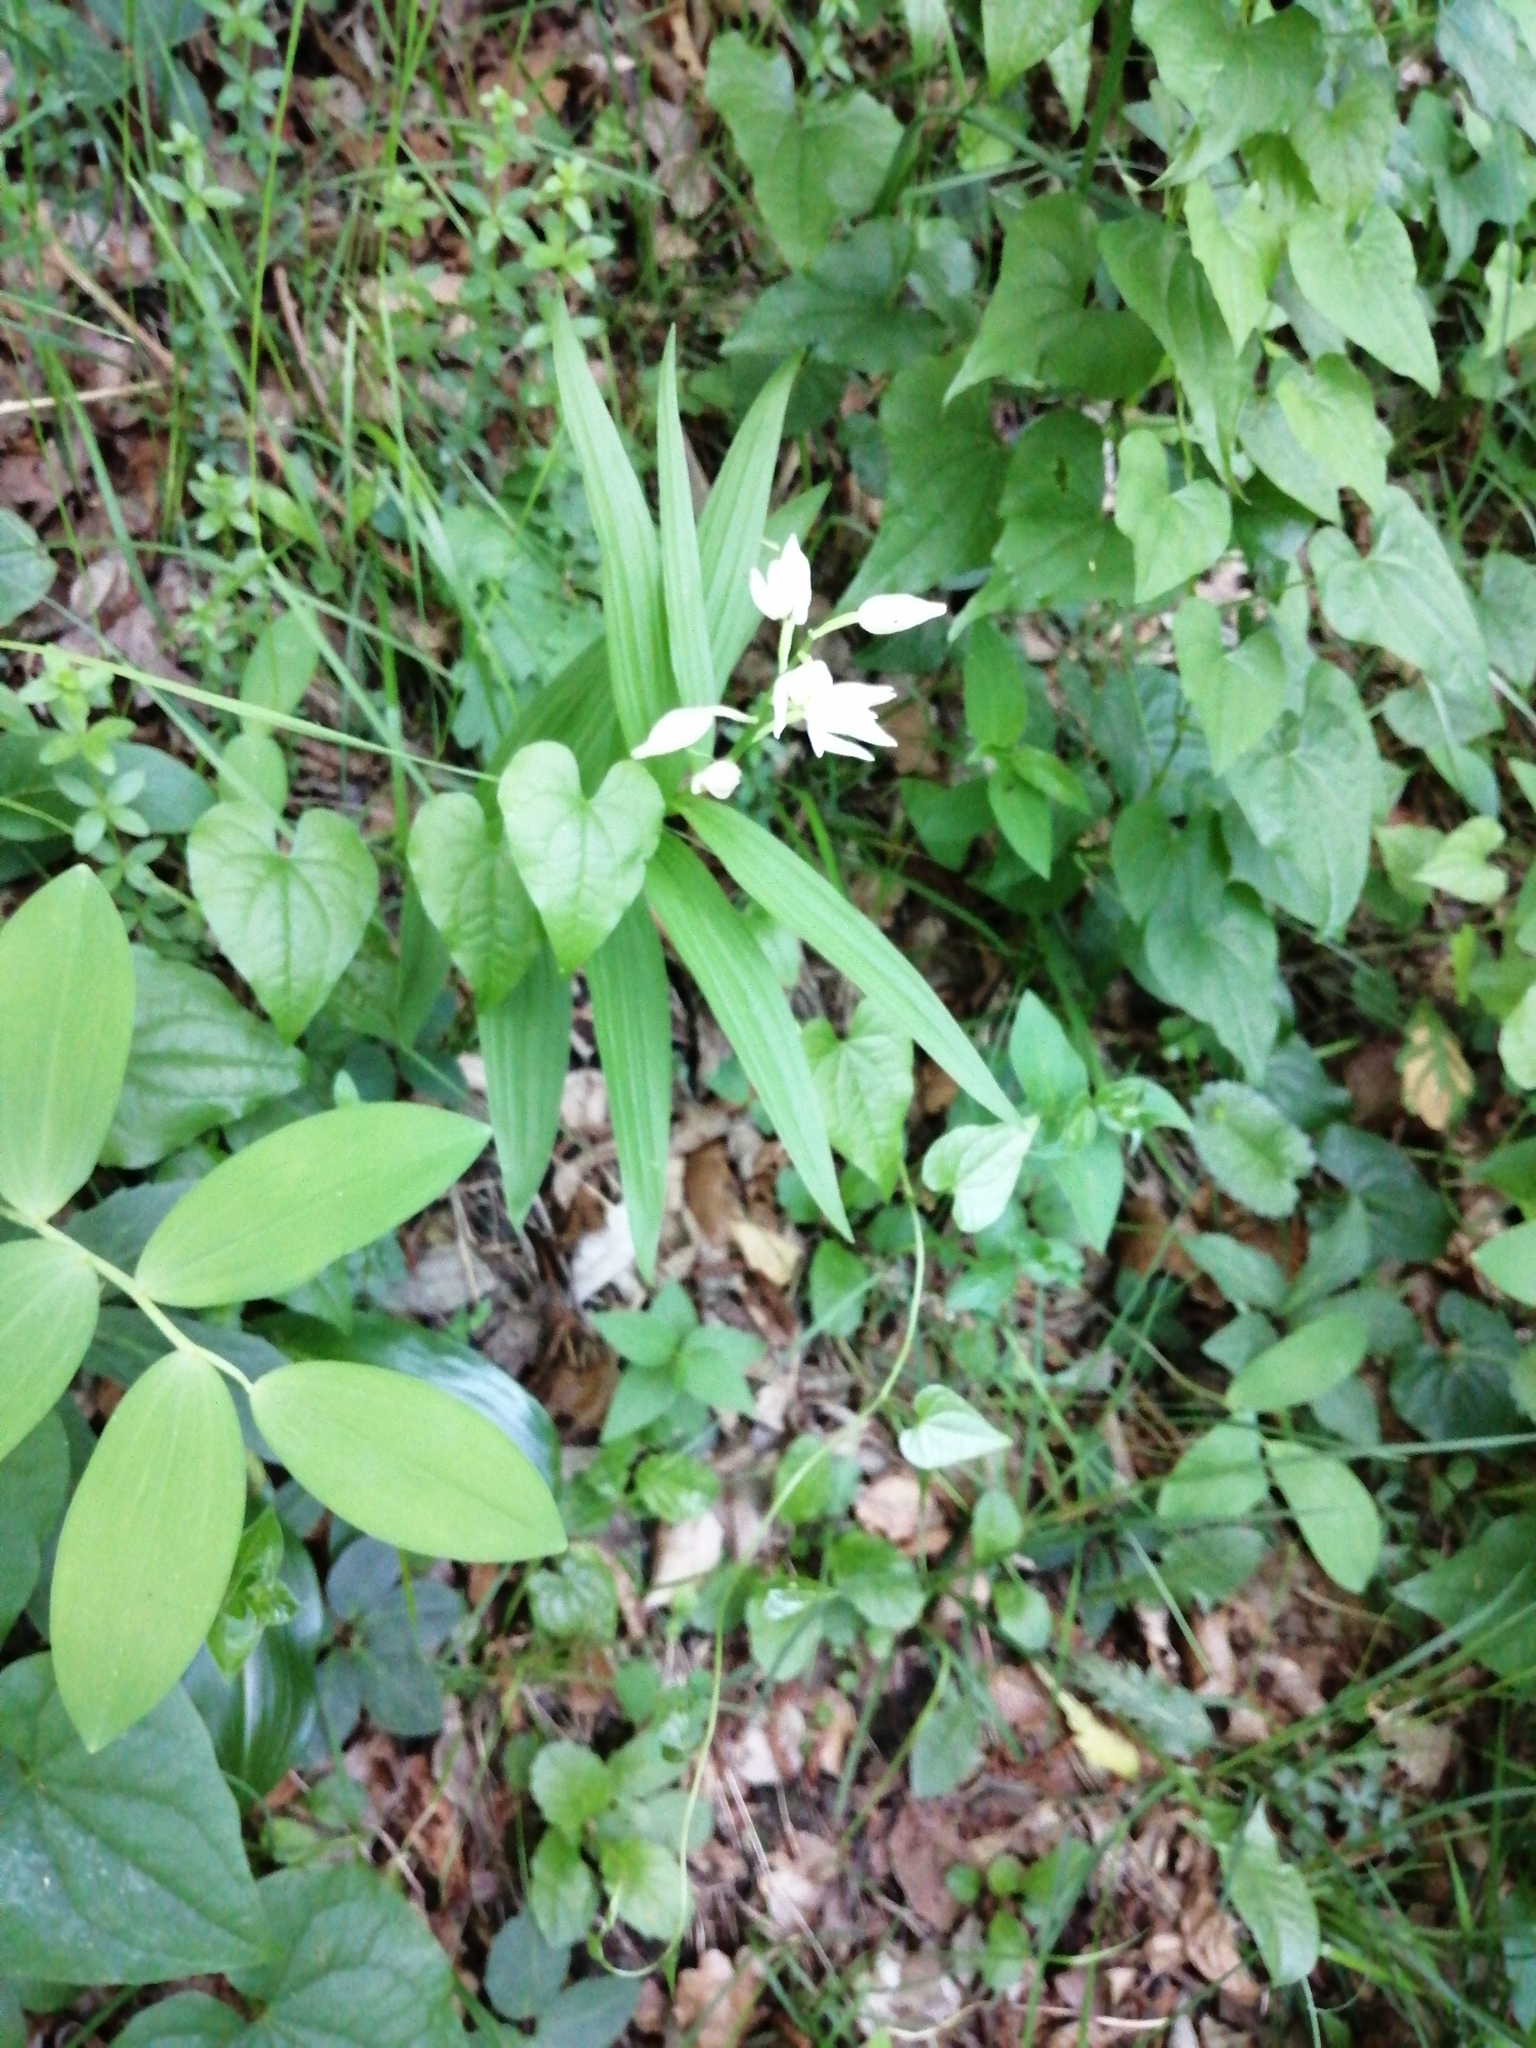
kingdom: Plantae
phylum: Tracheophyta
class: Liliopsida
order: Asparagales
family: Orchidaceae
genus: Cephalanthera
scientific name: Cephalanthera longifolia
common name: Narrow-leaved helleborine
